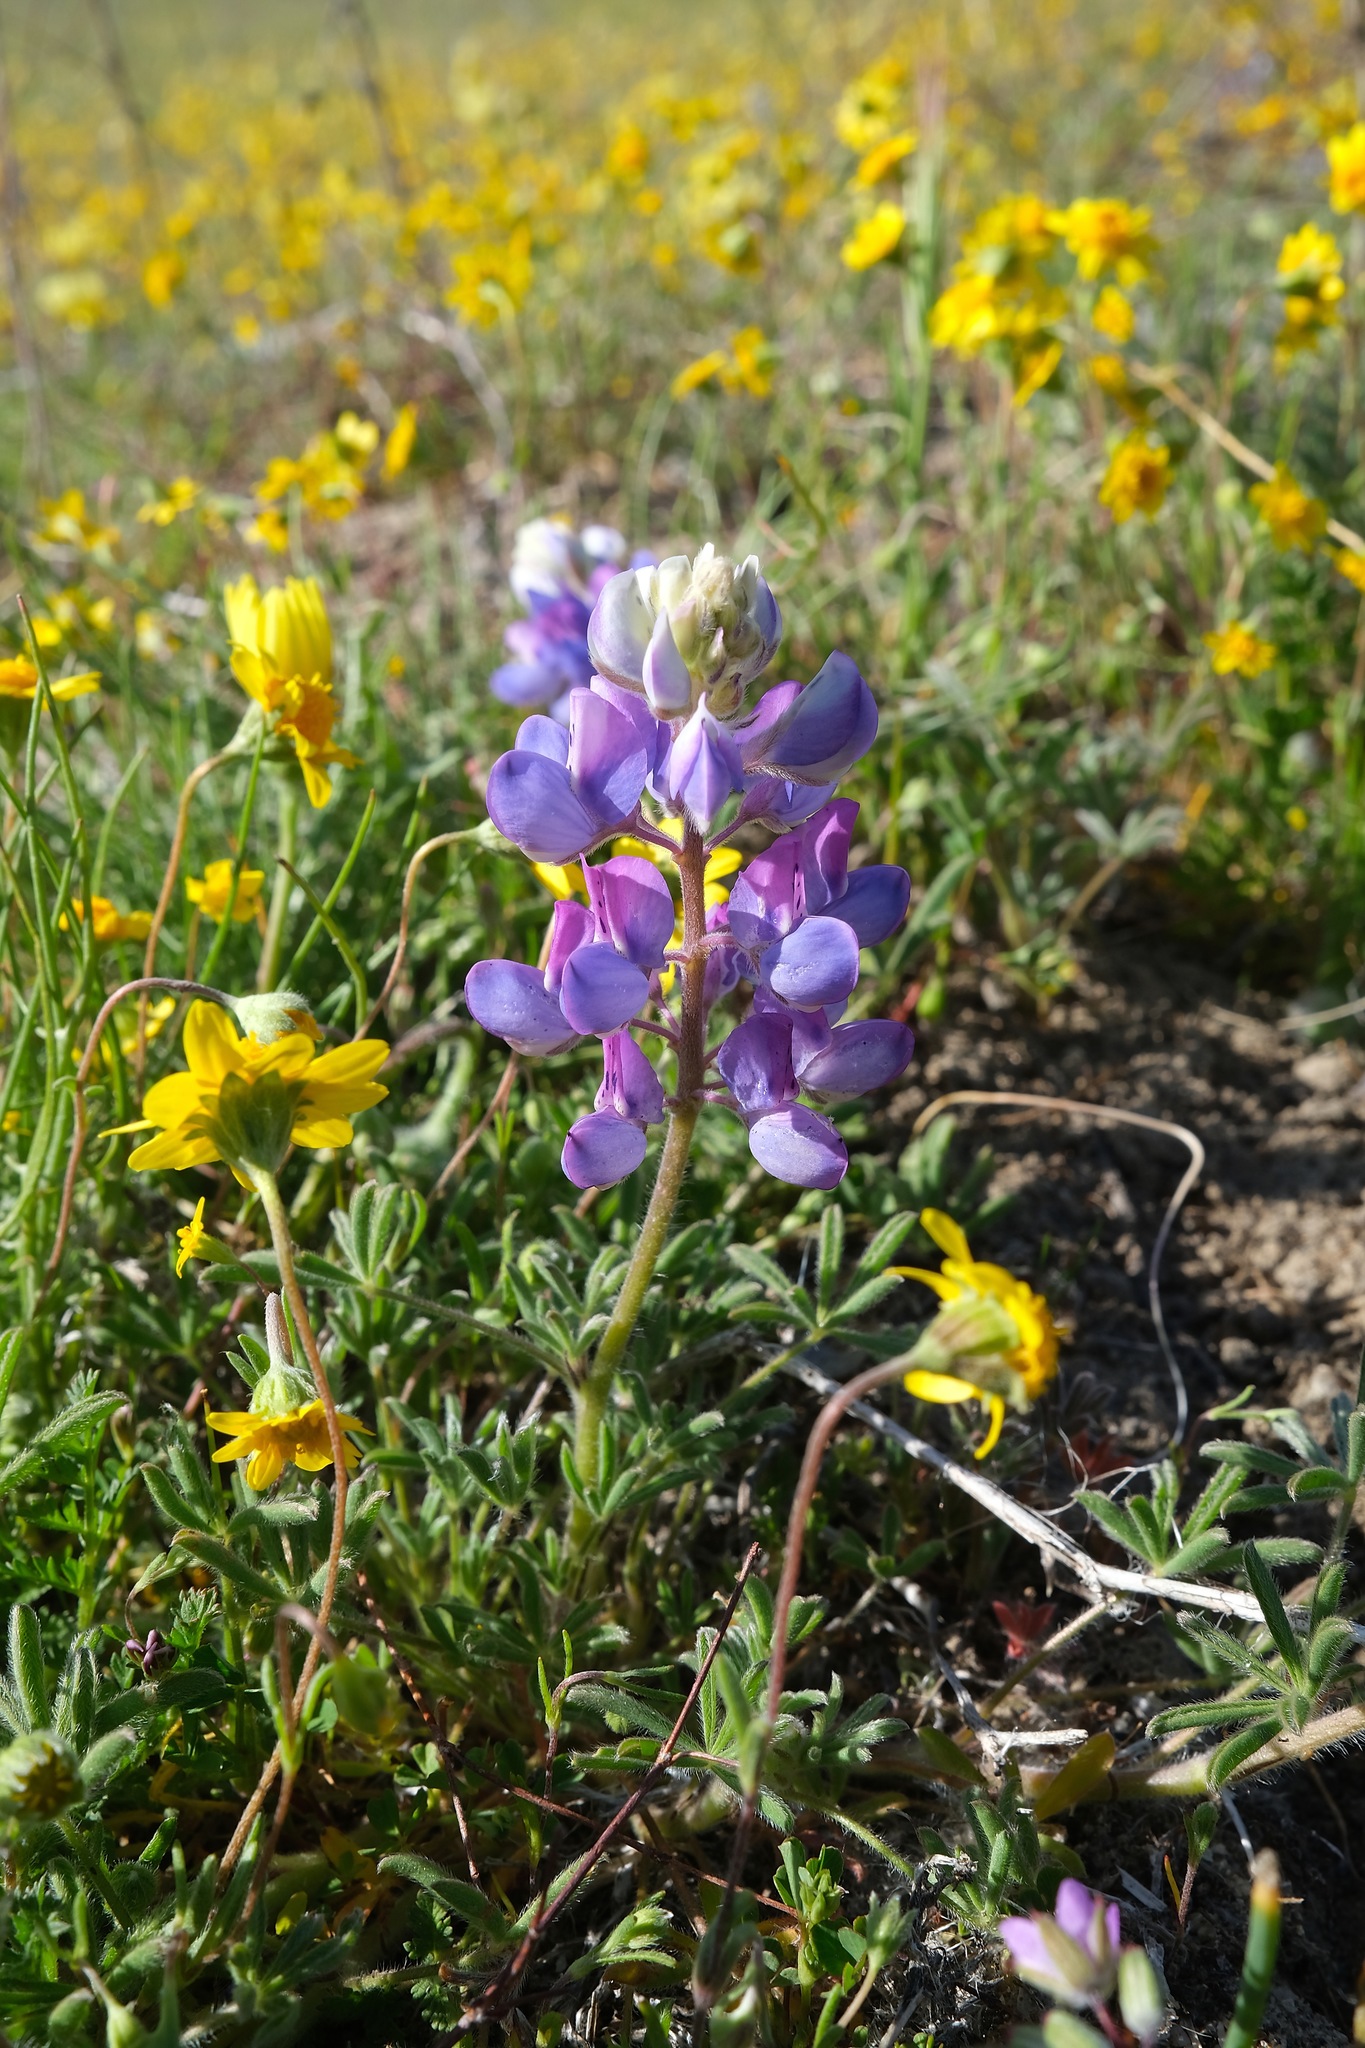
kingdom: Plantae
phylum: Tracheophyta
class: Magnoliopsida
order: Fabales
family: Fabaceae
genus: Lupinus
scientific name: Lupinus nanus
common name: Orean blue lupin
